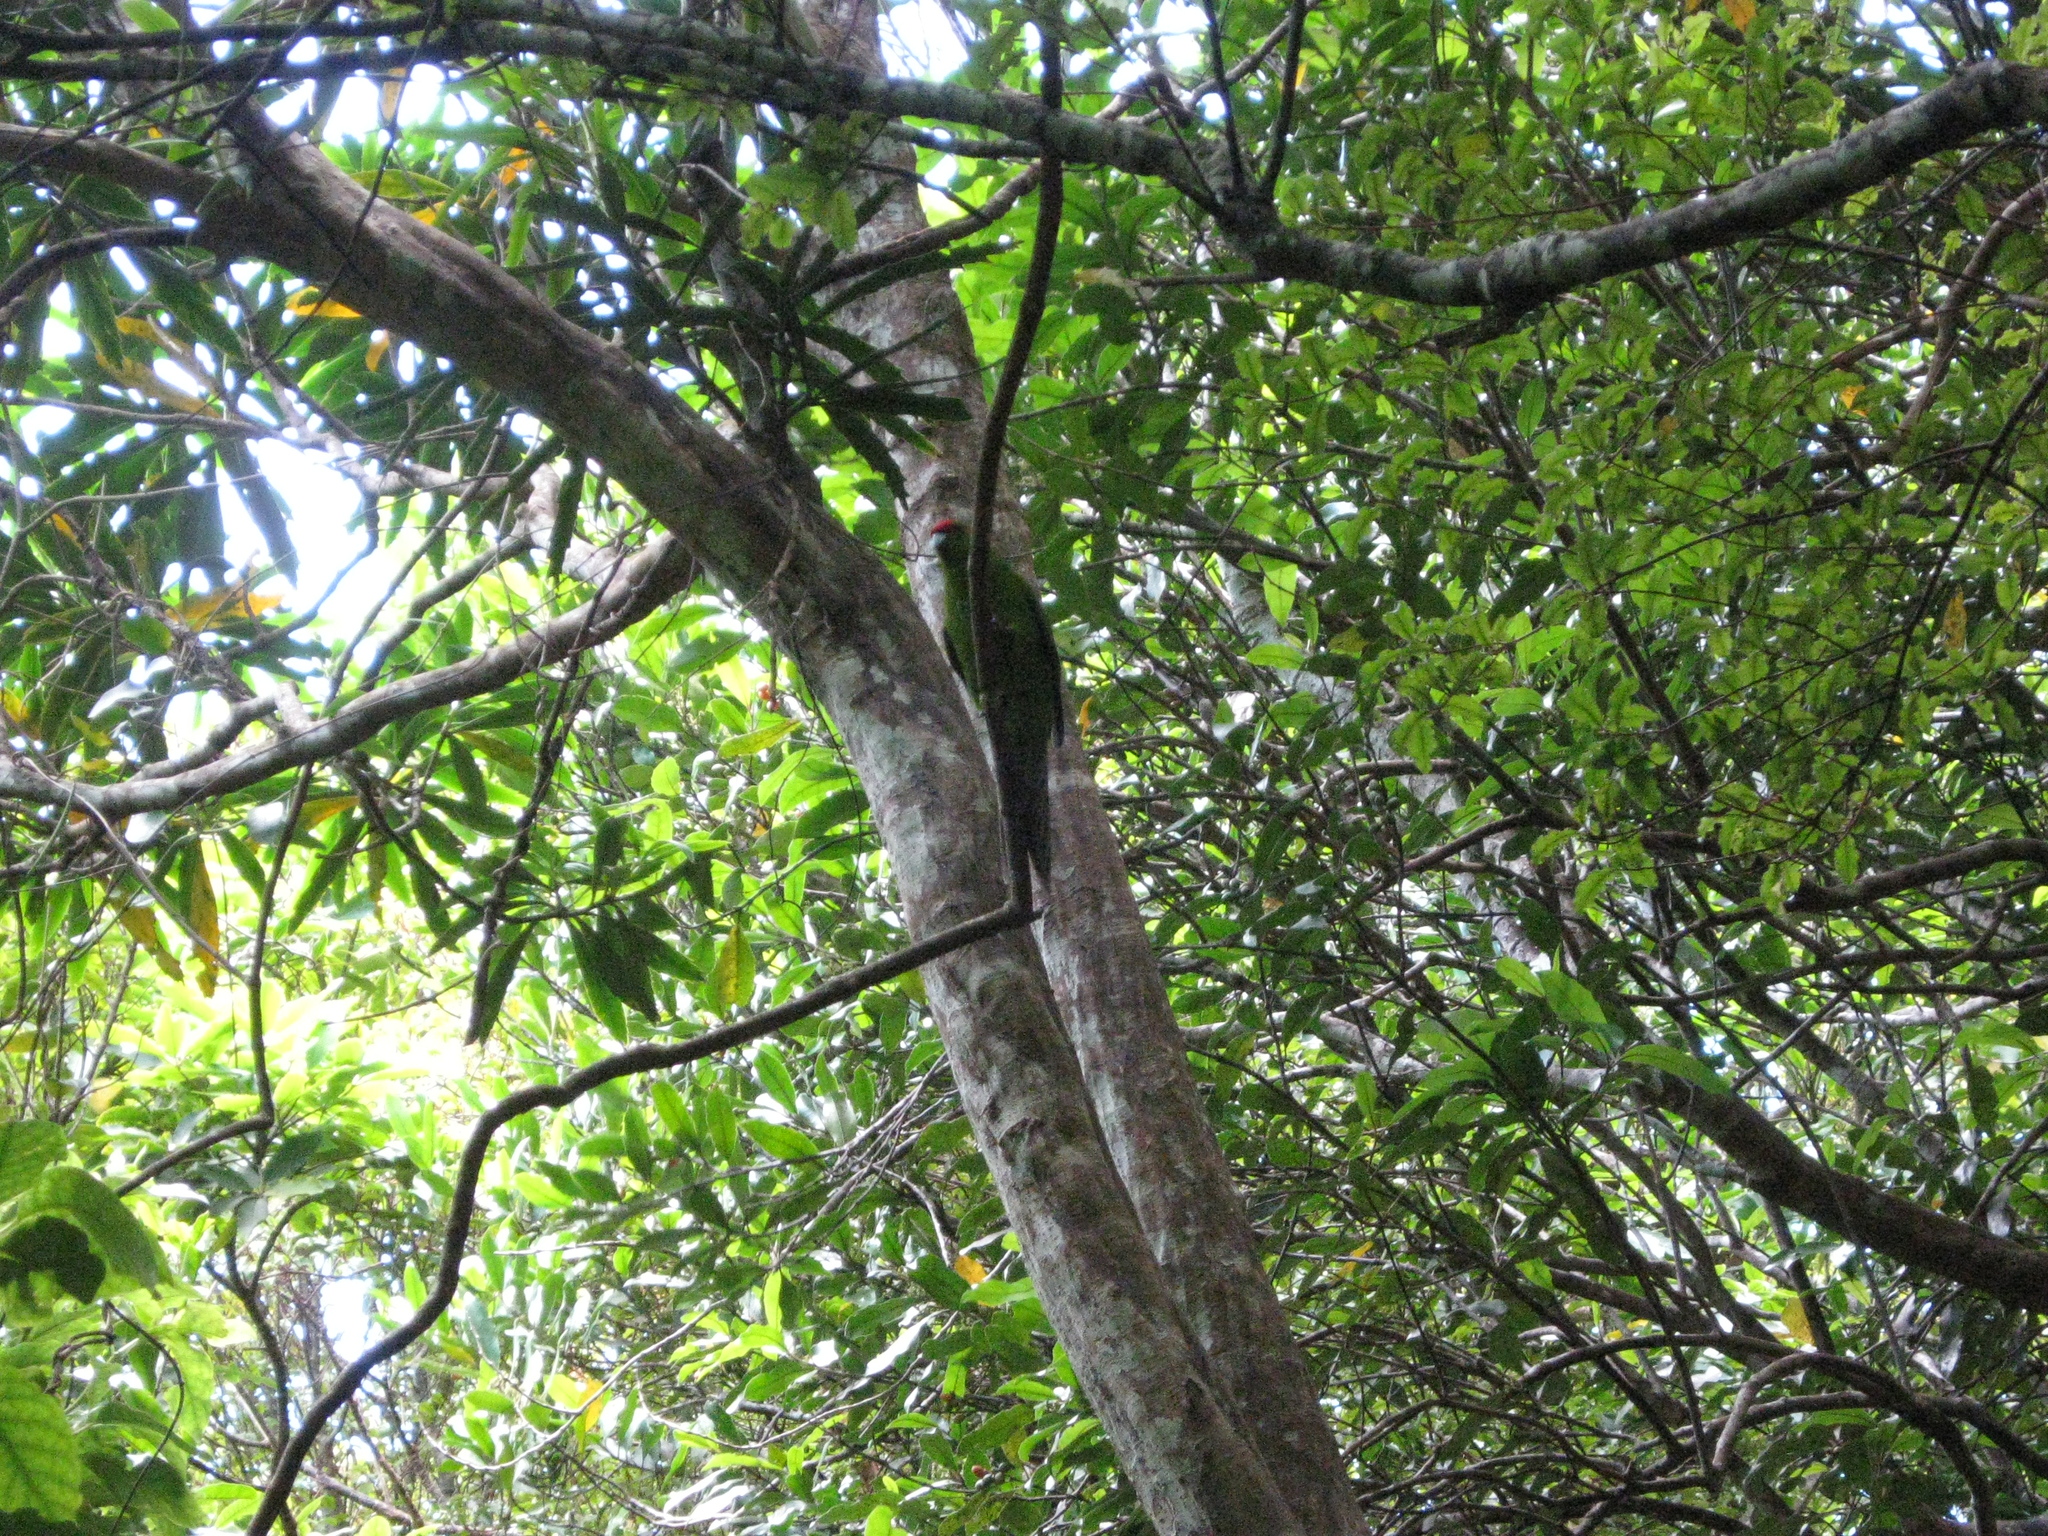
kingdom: Animalia
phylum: Chordata
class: Aves
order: Psittaciformes
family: Psittacidae
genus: Cyanoramphus
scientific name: Cyanoramphus novaezelandiae
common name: Red-fronted parakeet
